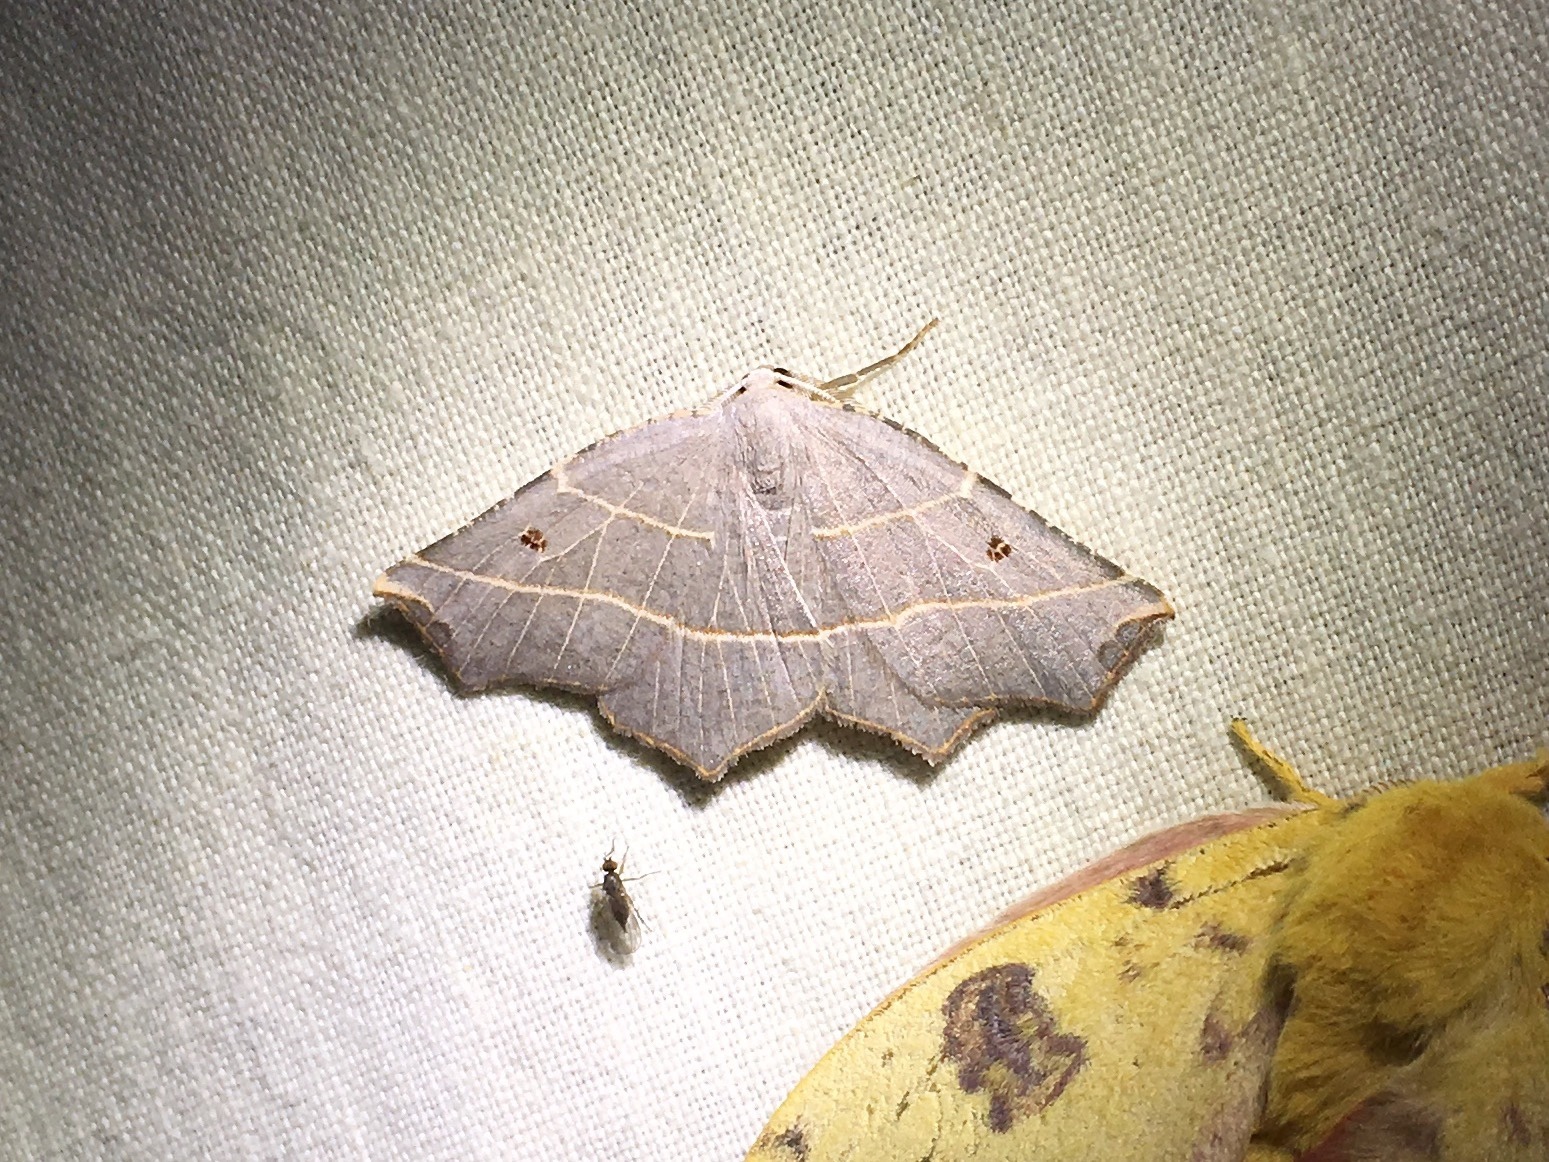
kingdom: Animalia
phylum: Arthropoda
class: Insecta
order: Lepidoptera
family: Geometridae
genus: Metanema
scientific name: Metanema inatomaria
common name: Pale metanema
